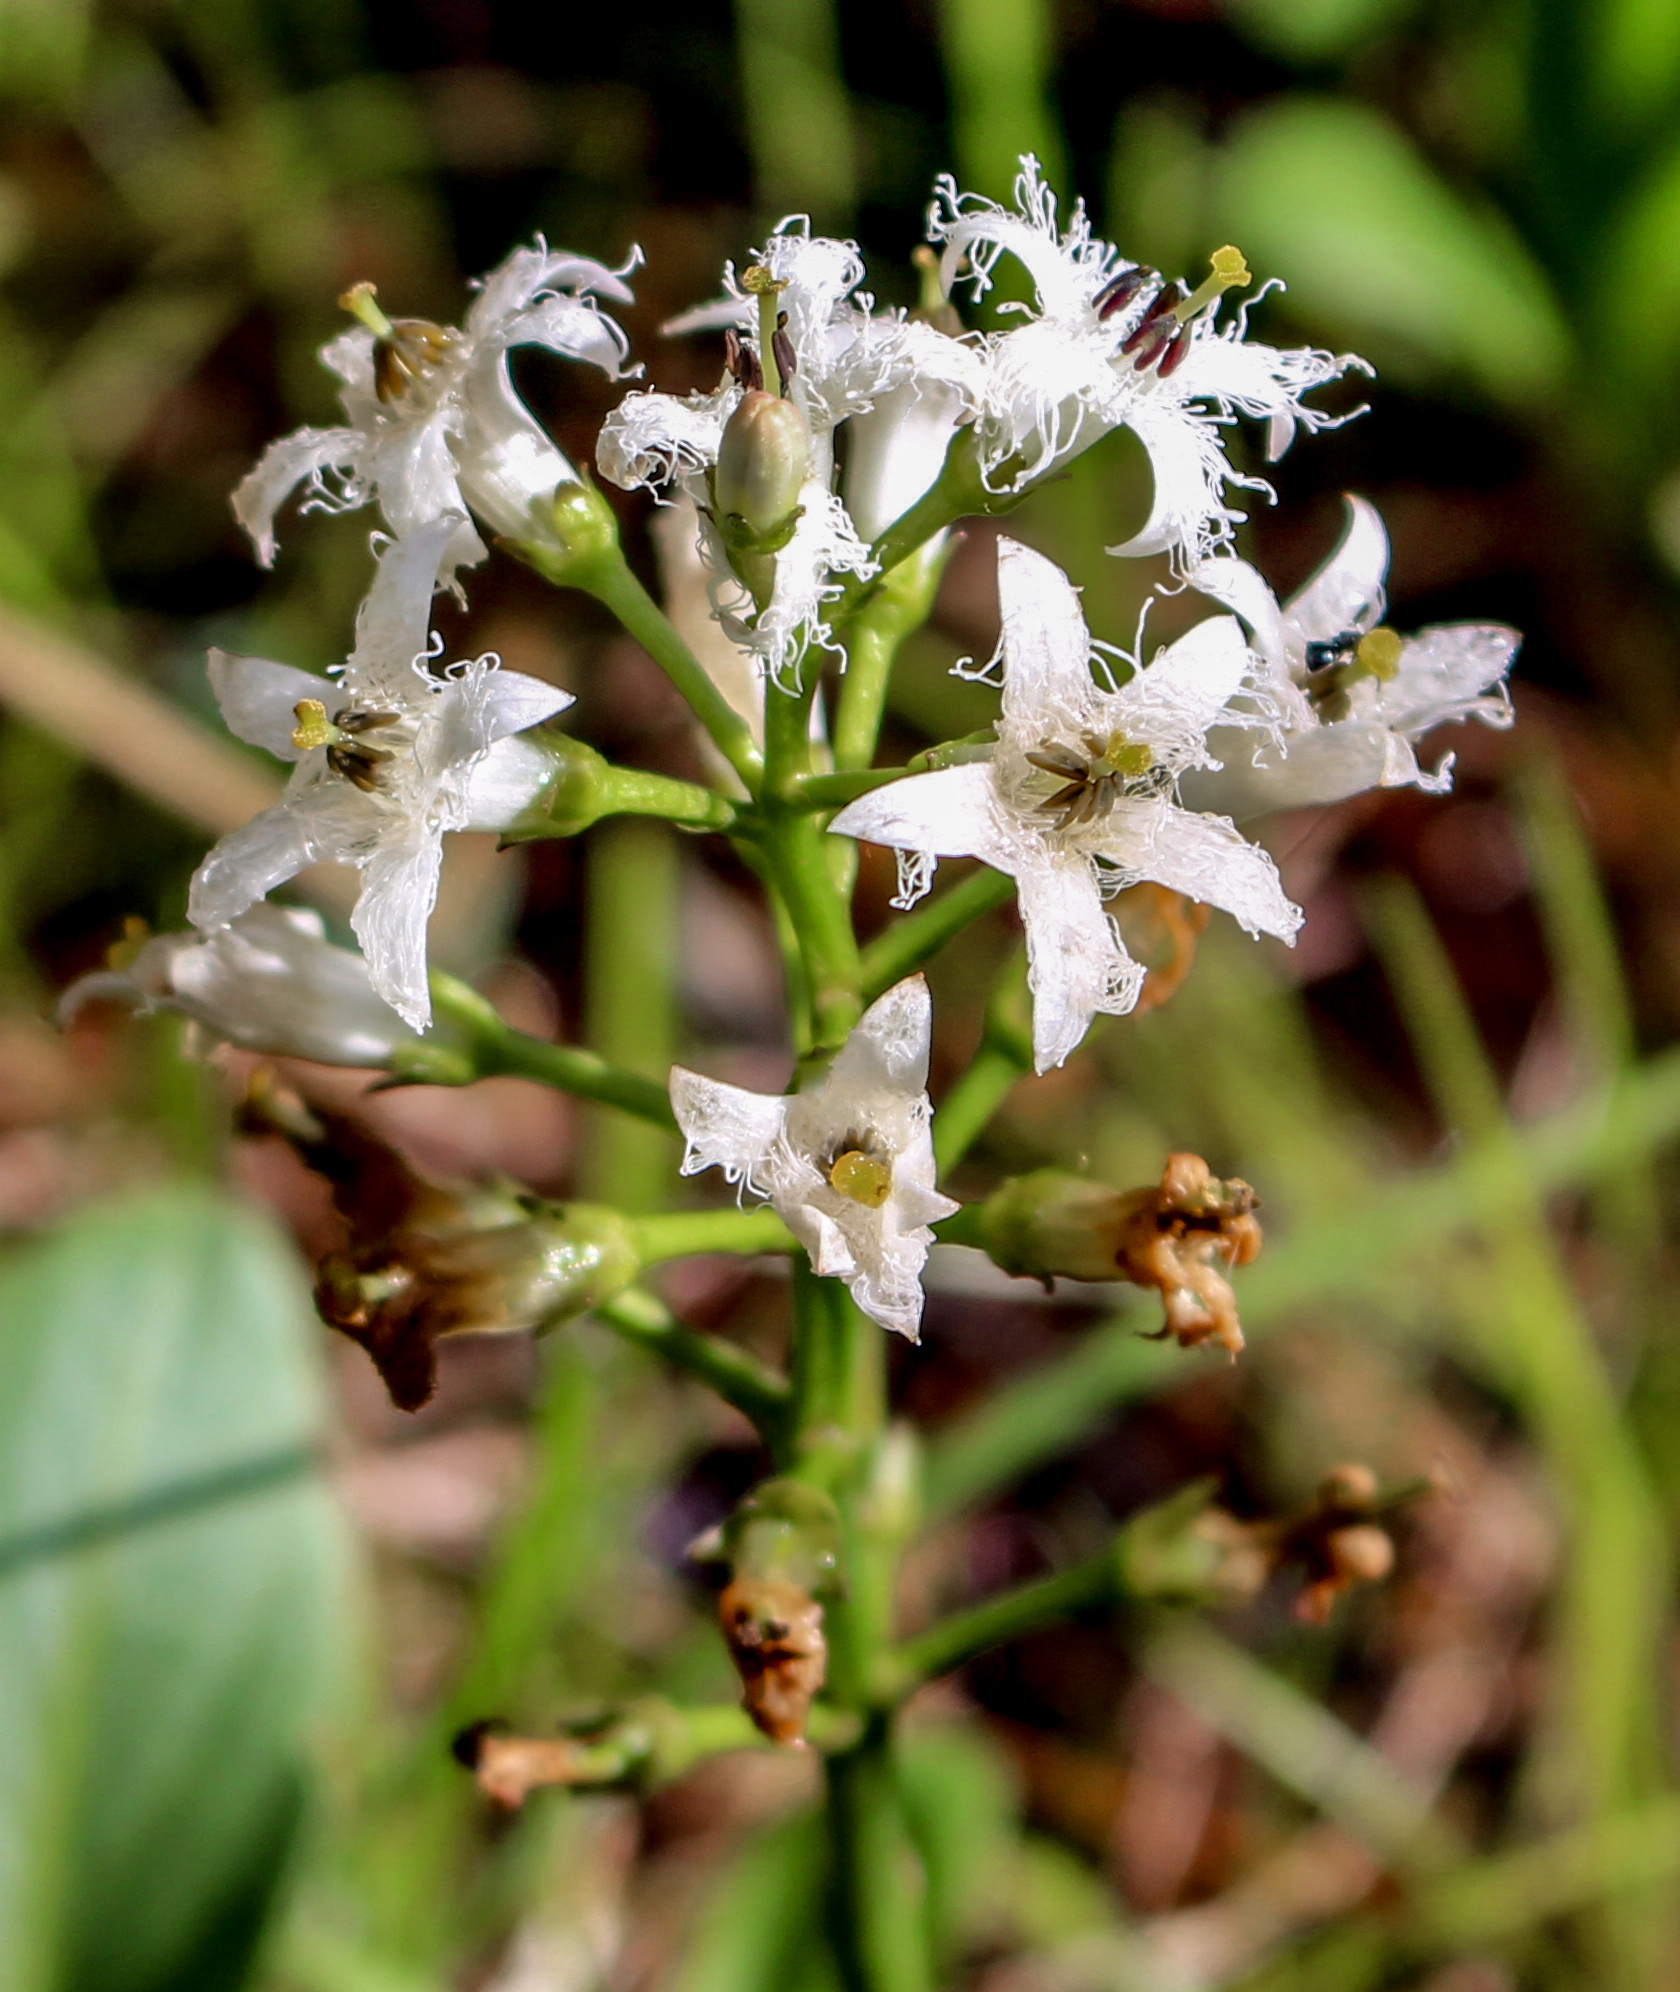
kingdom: Plantae
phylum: Tracheophyta
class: Magnoliopsida
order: Asterales
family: Menyanthaceae
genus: Menyanthes
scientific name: Menyanthes trifoliata
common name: Bogbean
